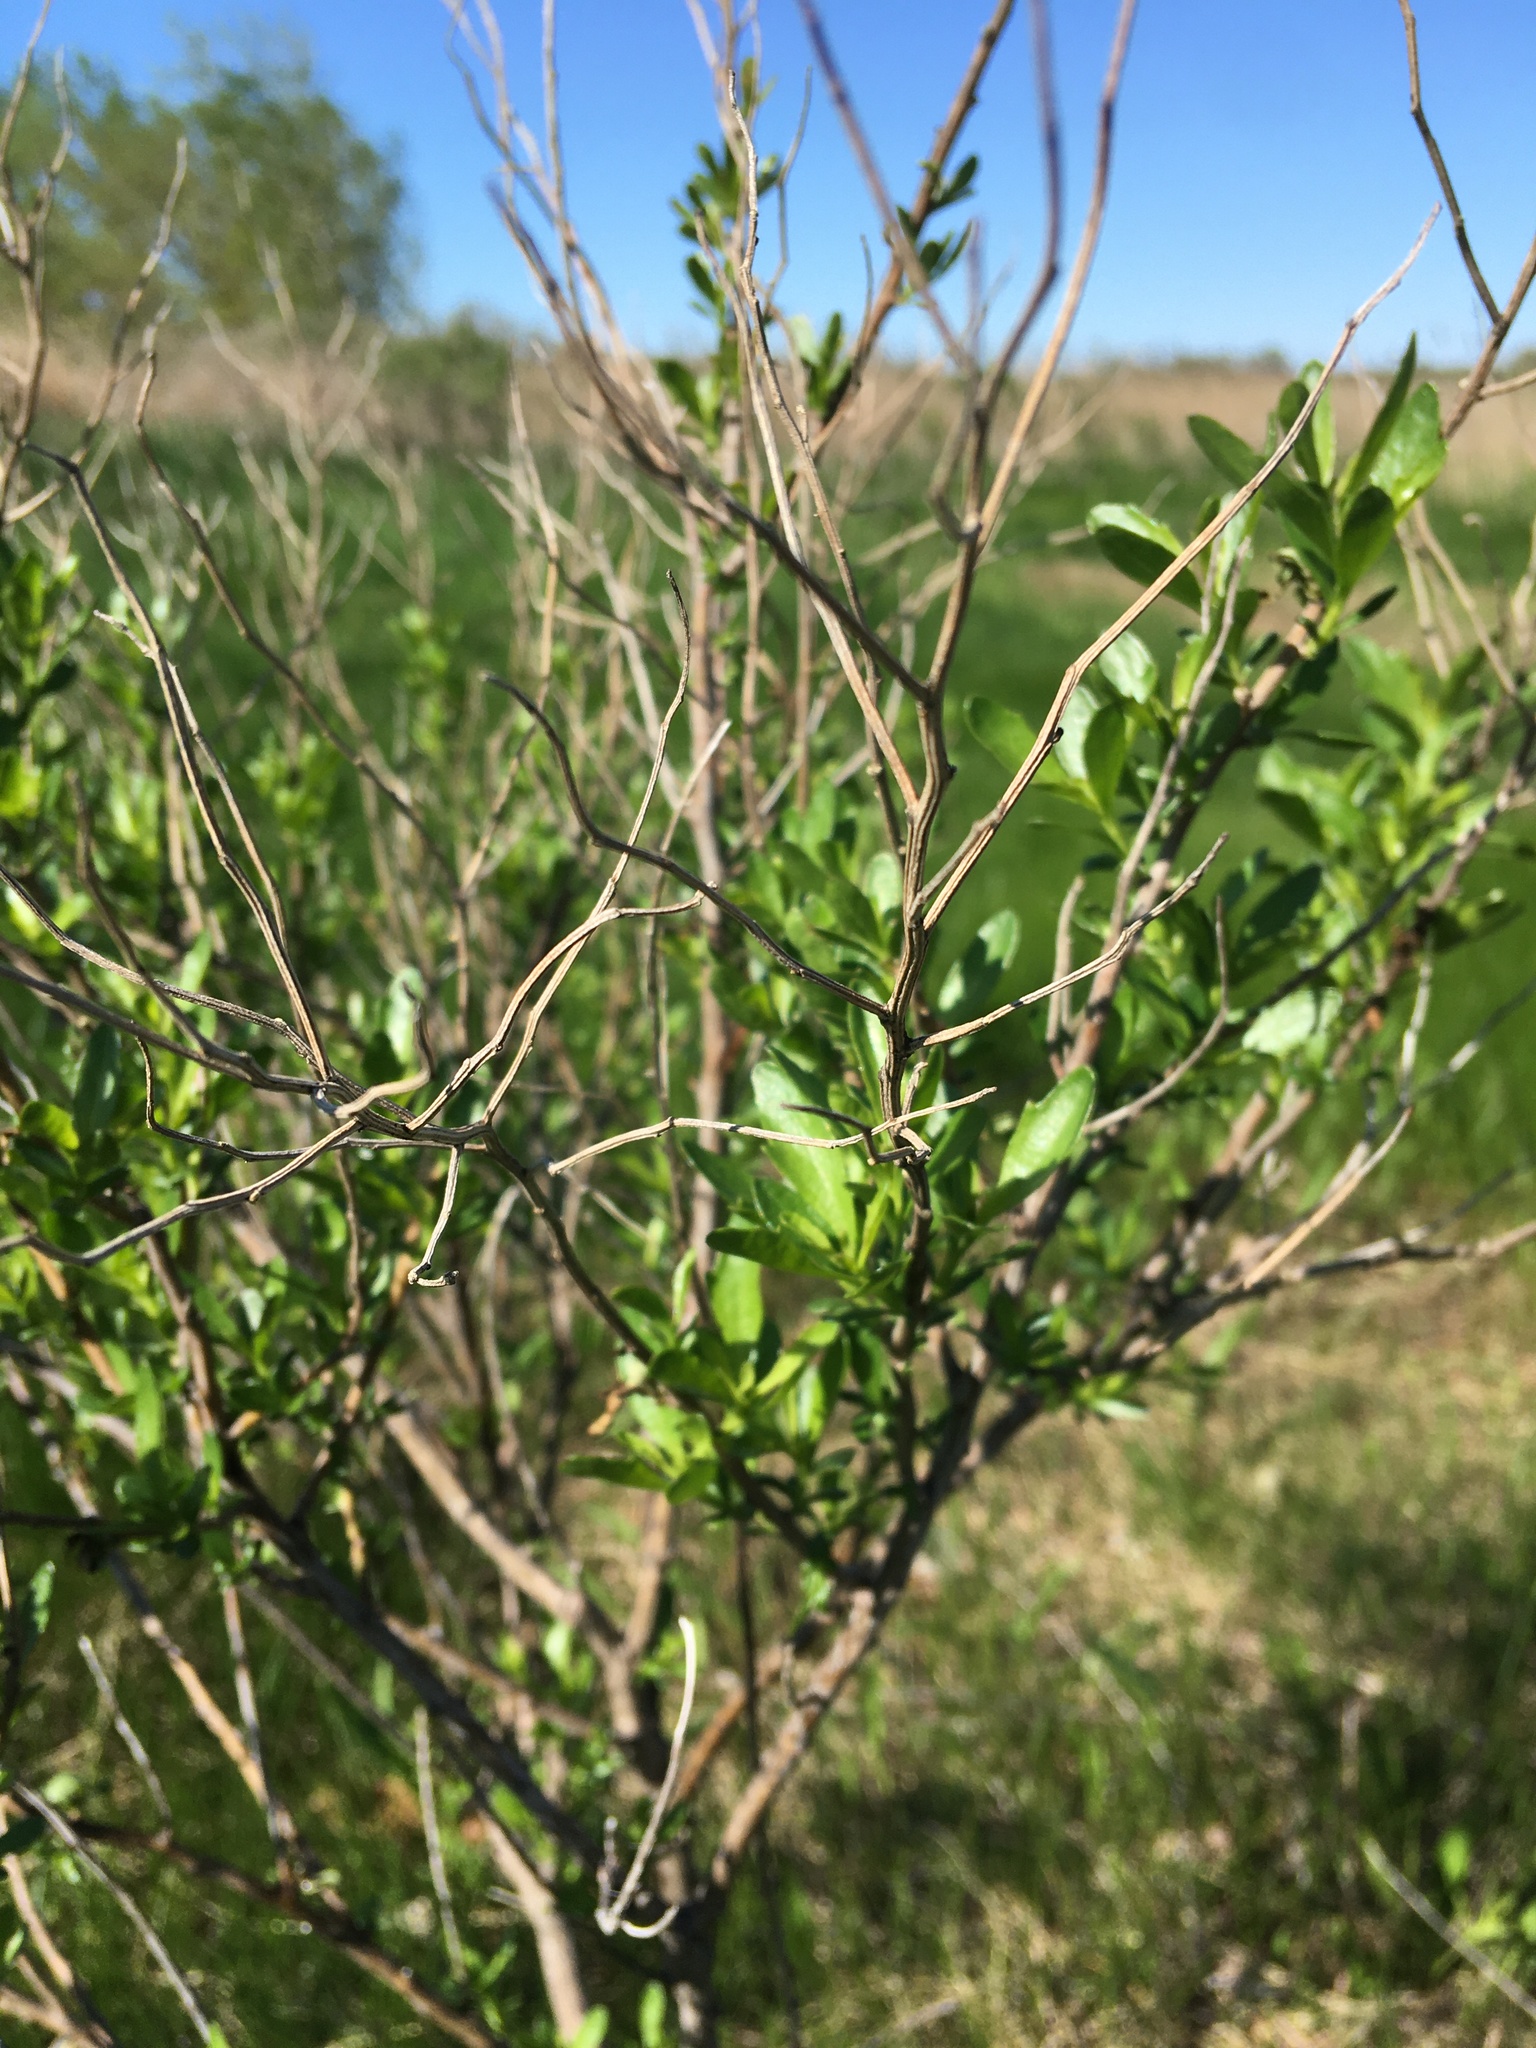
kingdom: Plantae
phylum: Tracheophyta
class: Magnoliopsida
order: Asterales
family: Asteraceae
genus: Baccharis
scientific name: Baccharis halimifolia
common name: Eastern baccharis
